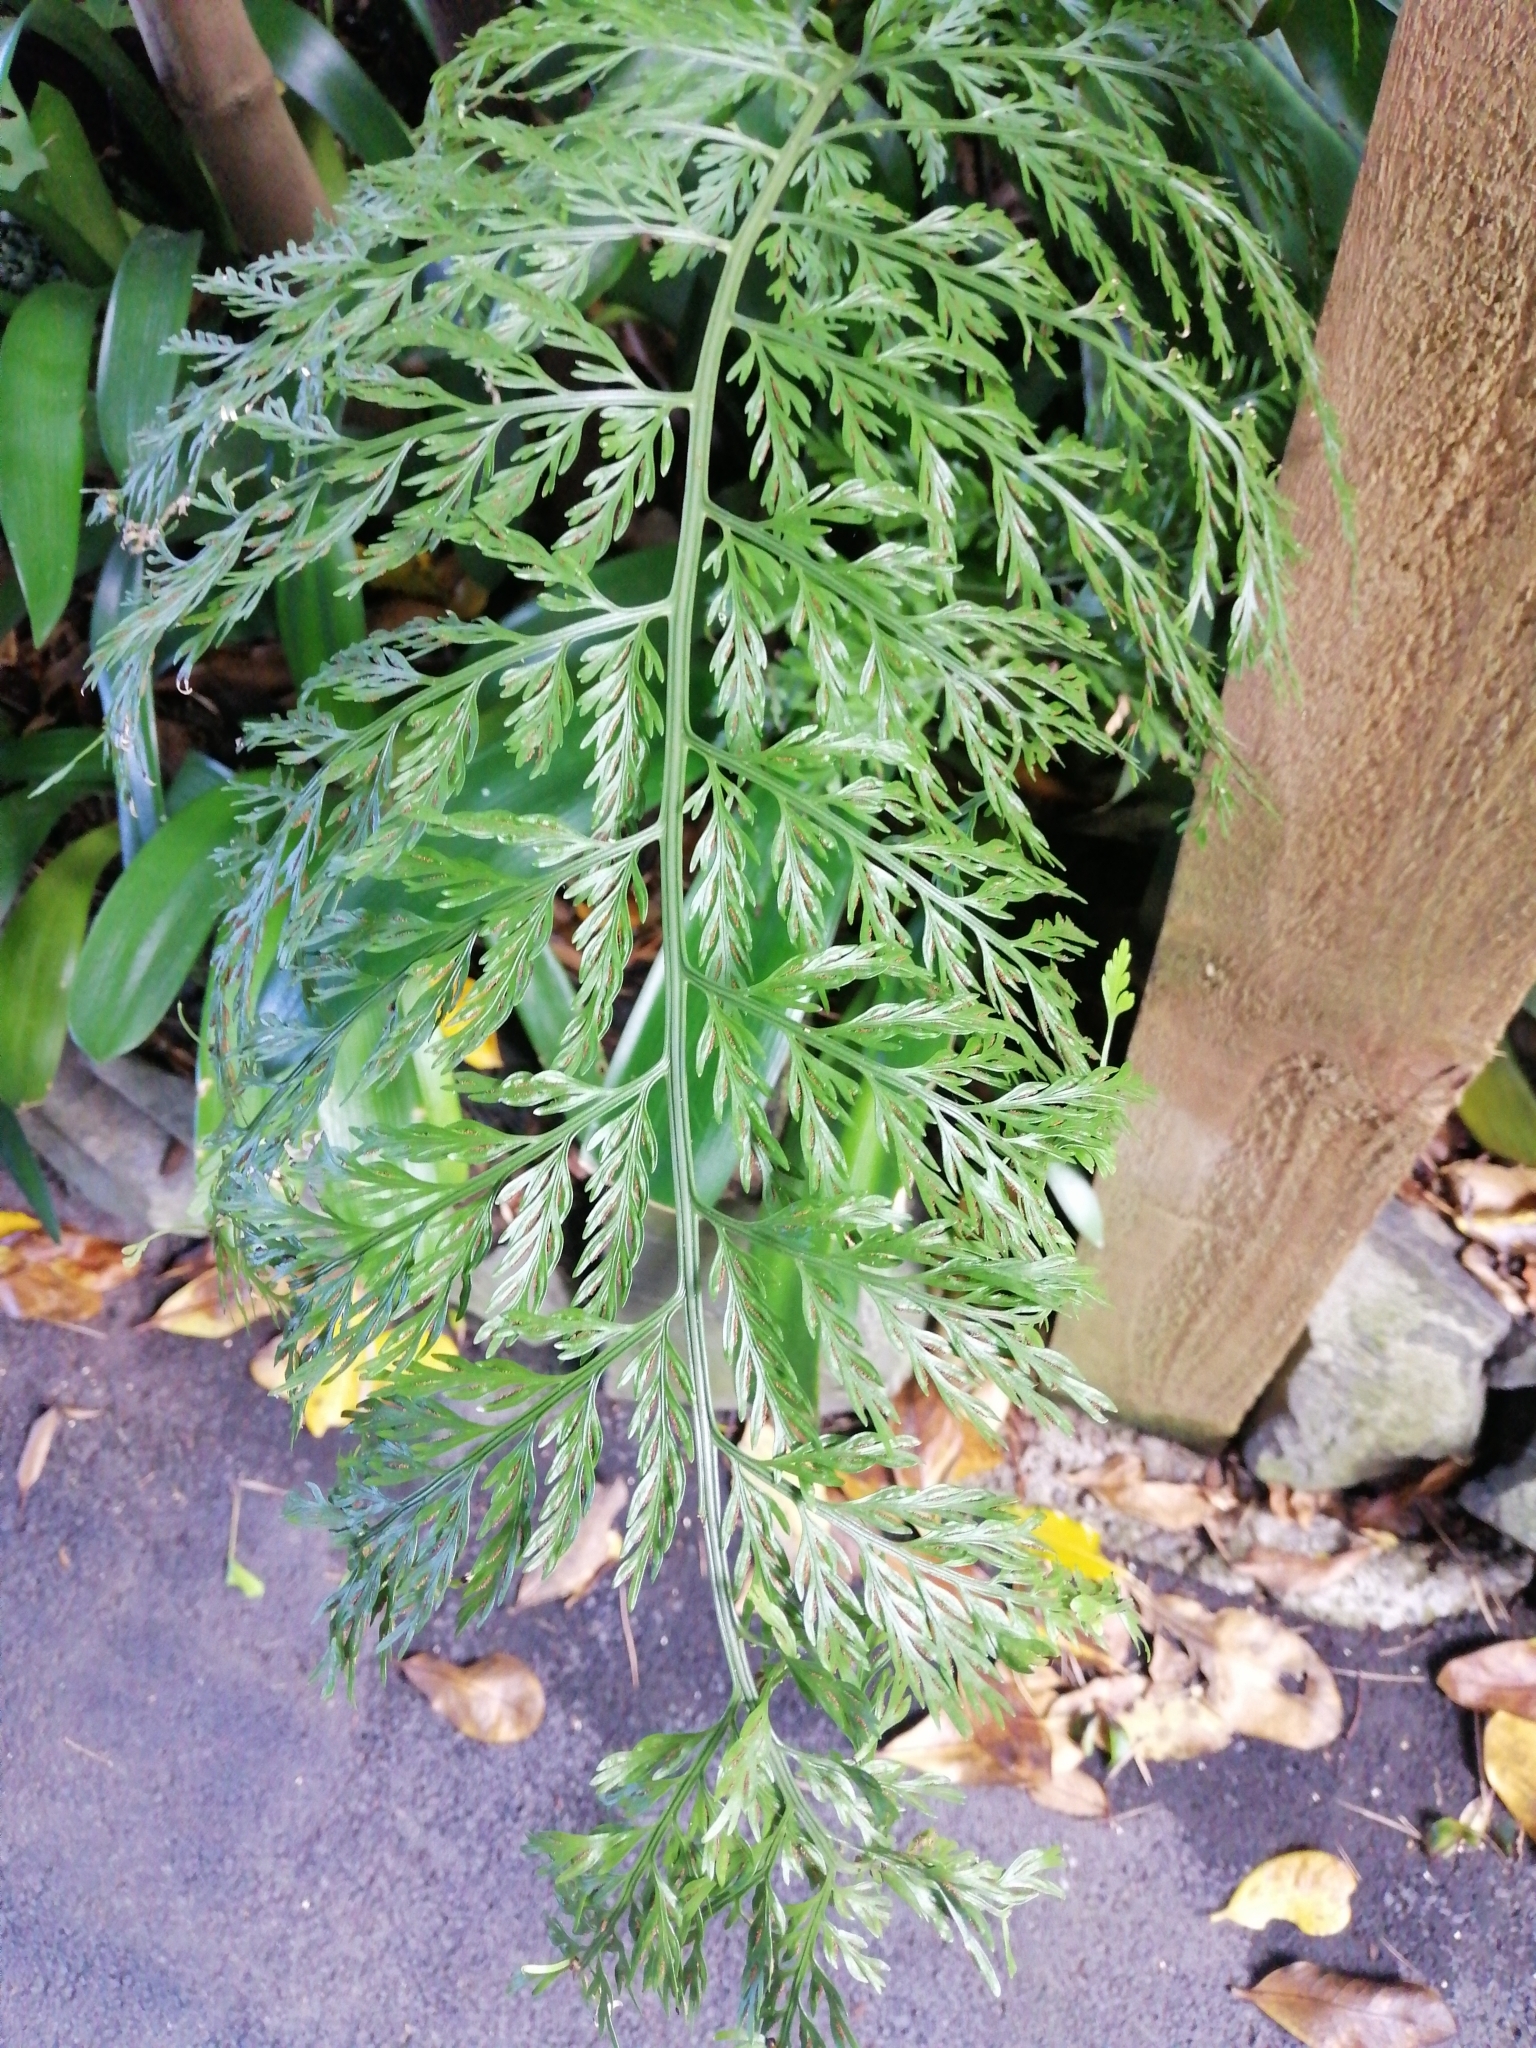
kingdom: Plantae
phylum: Tracheophyta
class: Polypodiopsida
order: Polypodiales
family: Aspleniaceae
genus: Asplenium
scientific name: Asplenium
